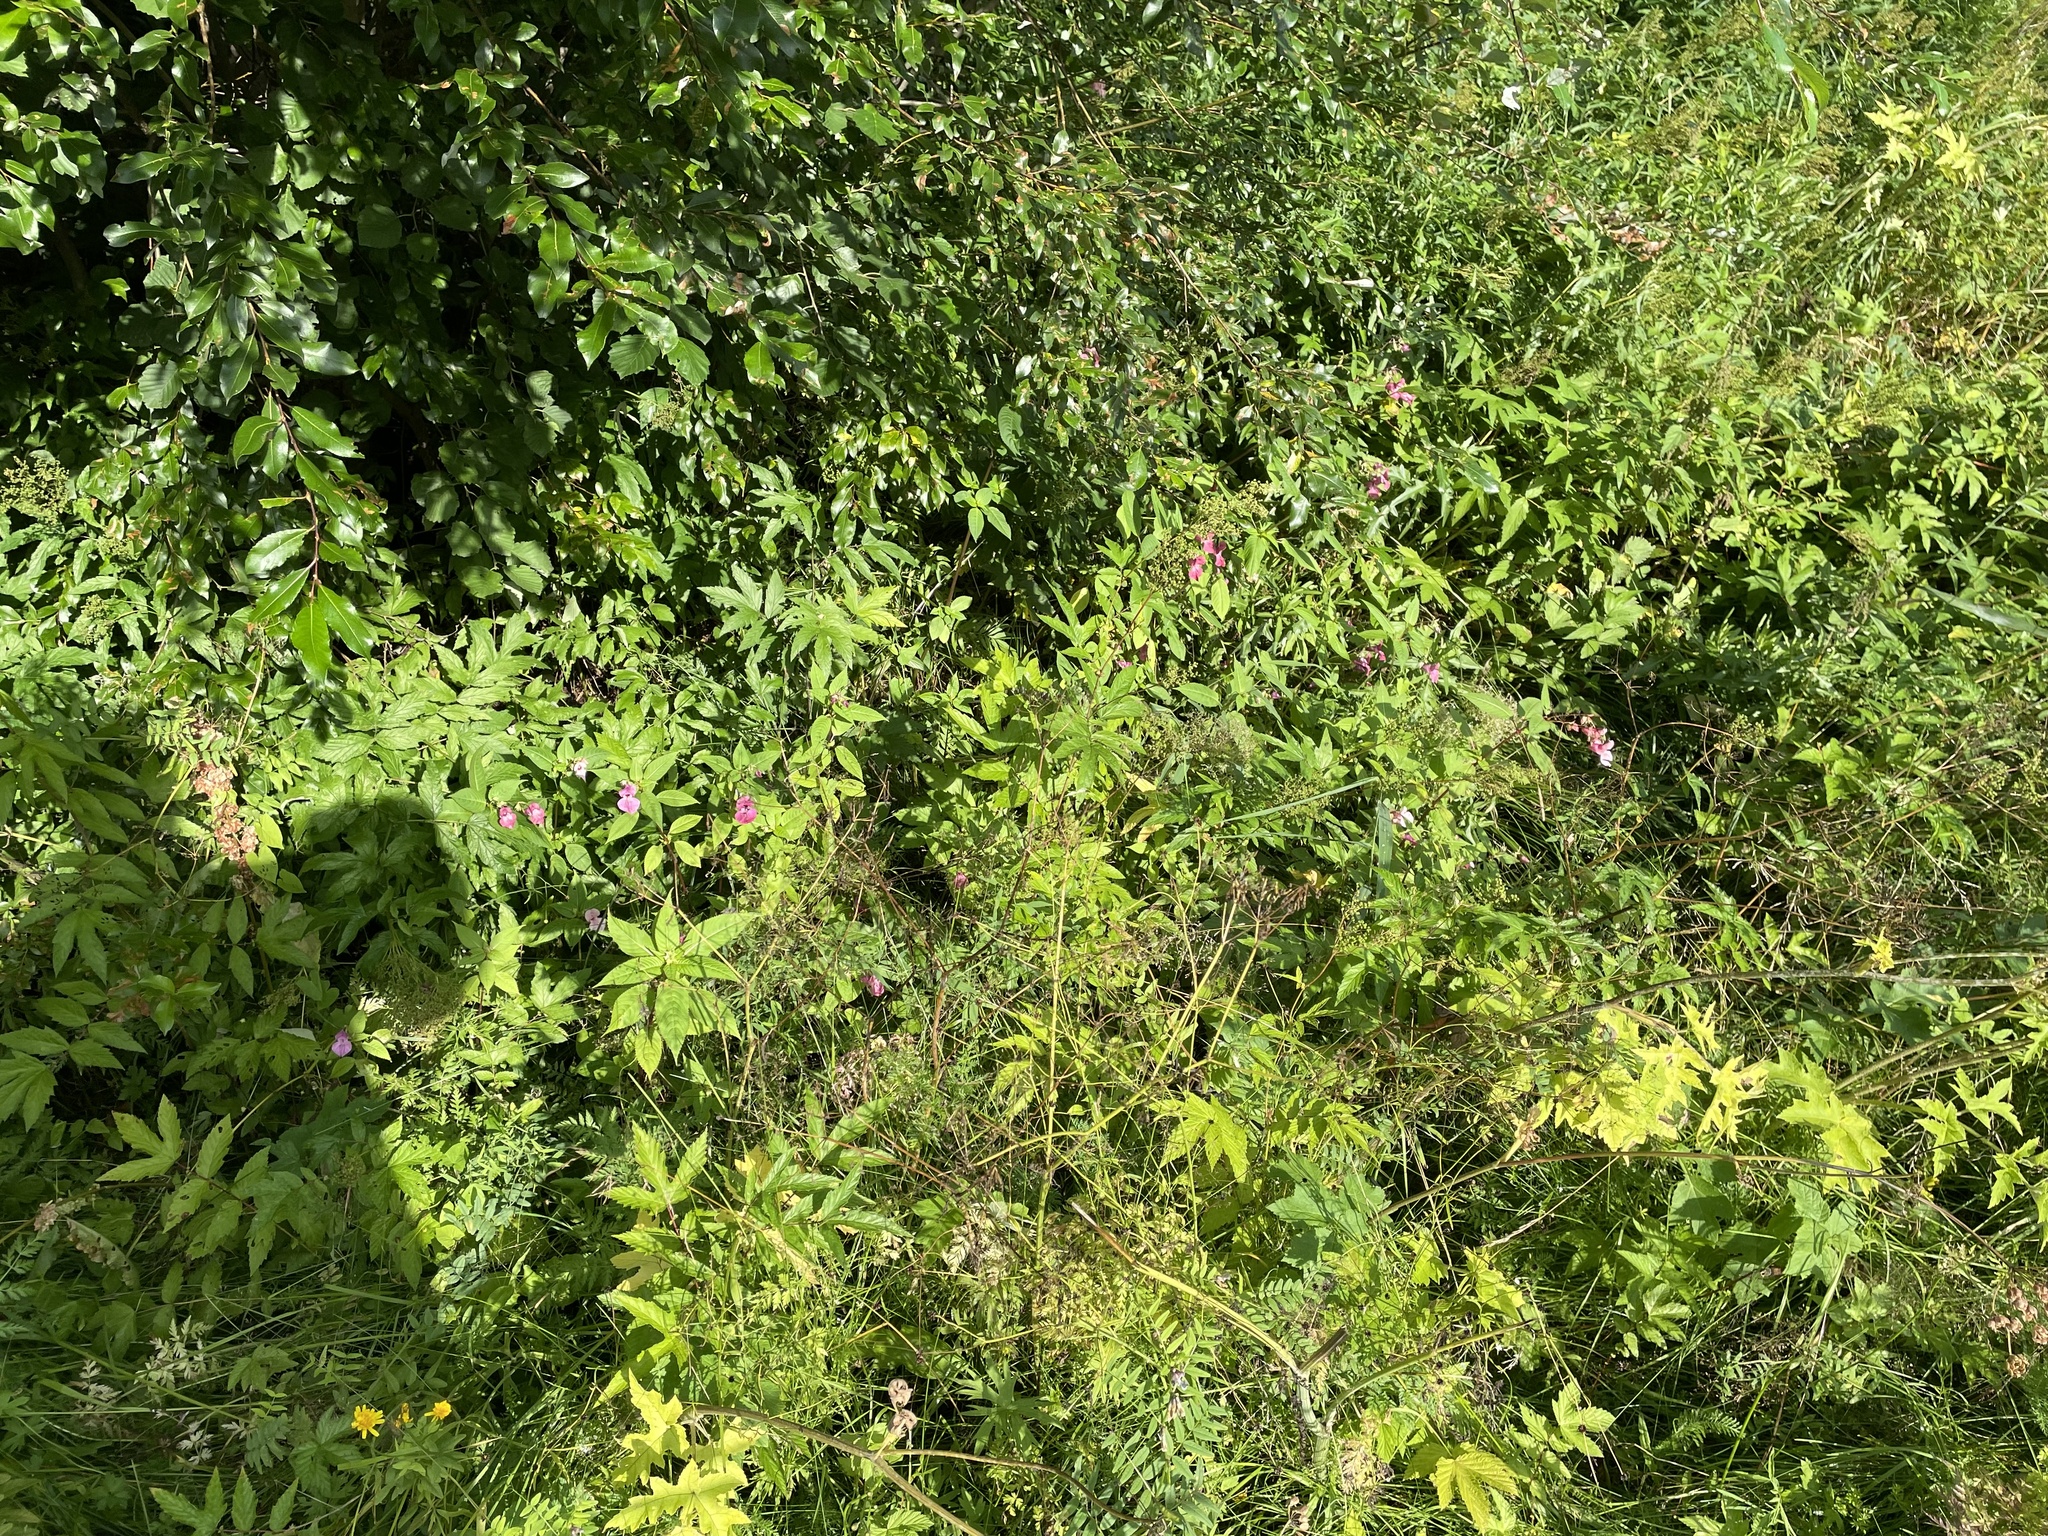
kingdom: Plantae
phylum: Tracheophyta
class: Magnoliopsida
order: Ericales
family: Balsaminaceae
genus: Impatiens
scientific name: Impatiens glandulifera
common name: Himalayan balsam
